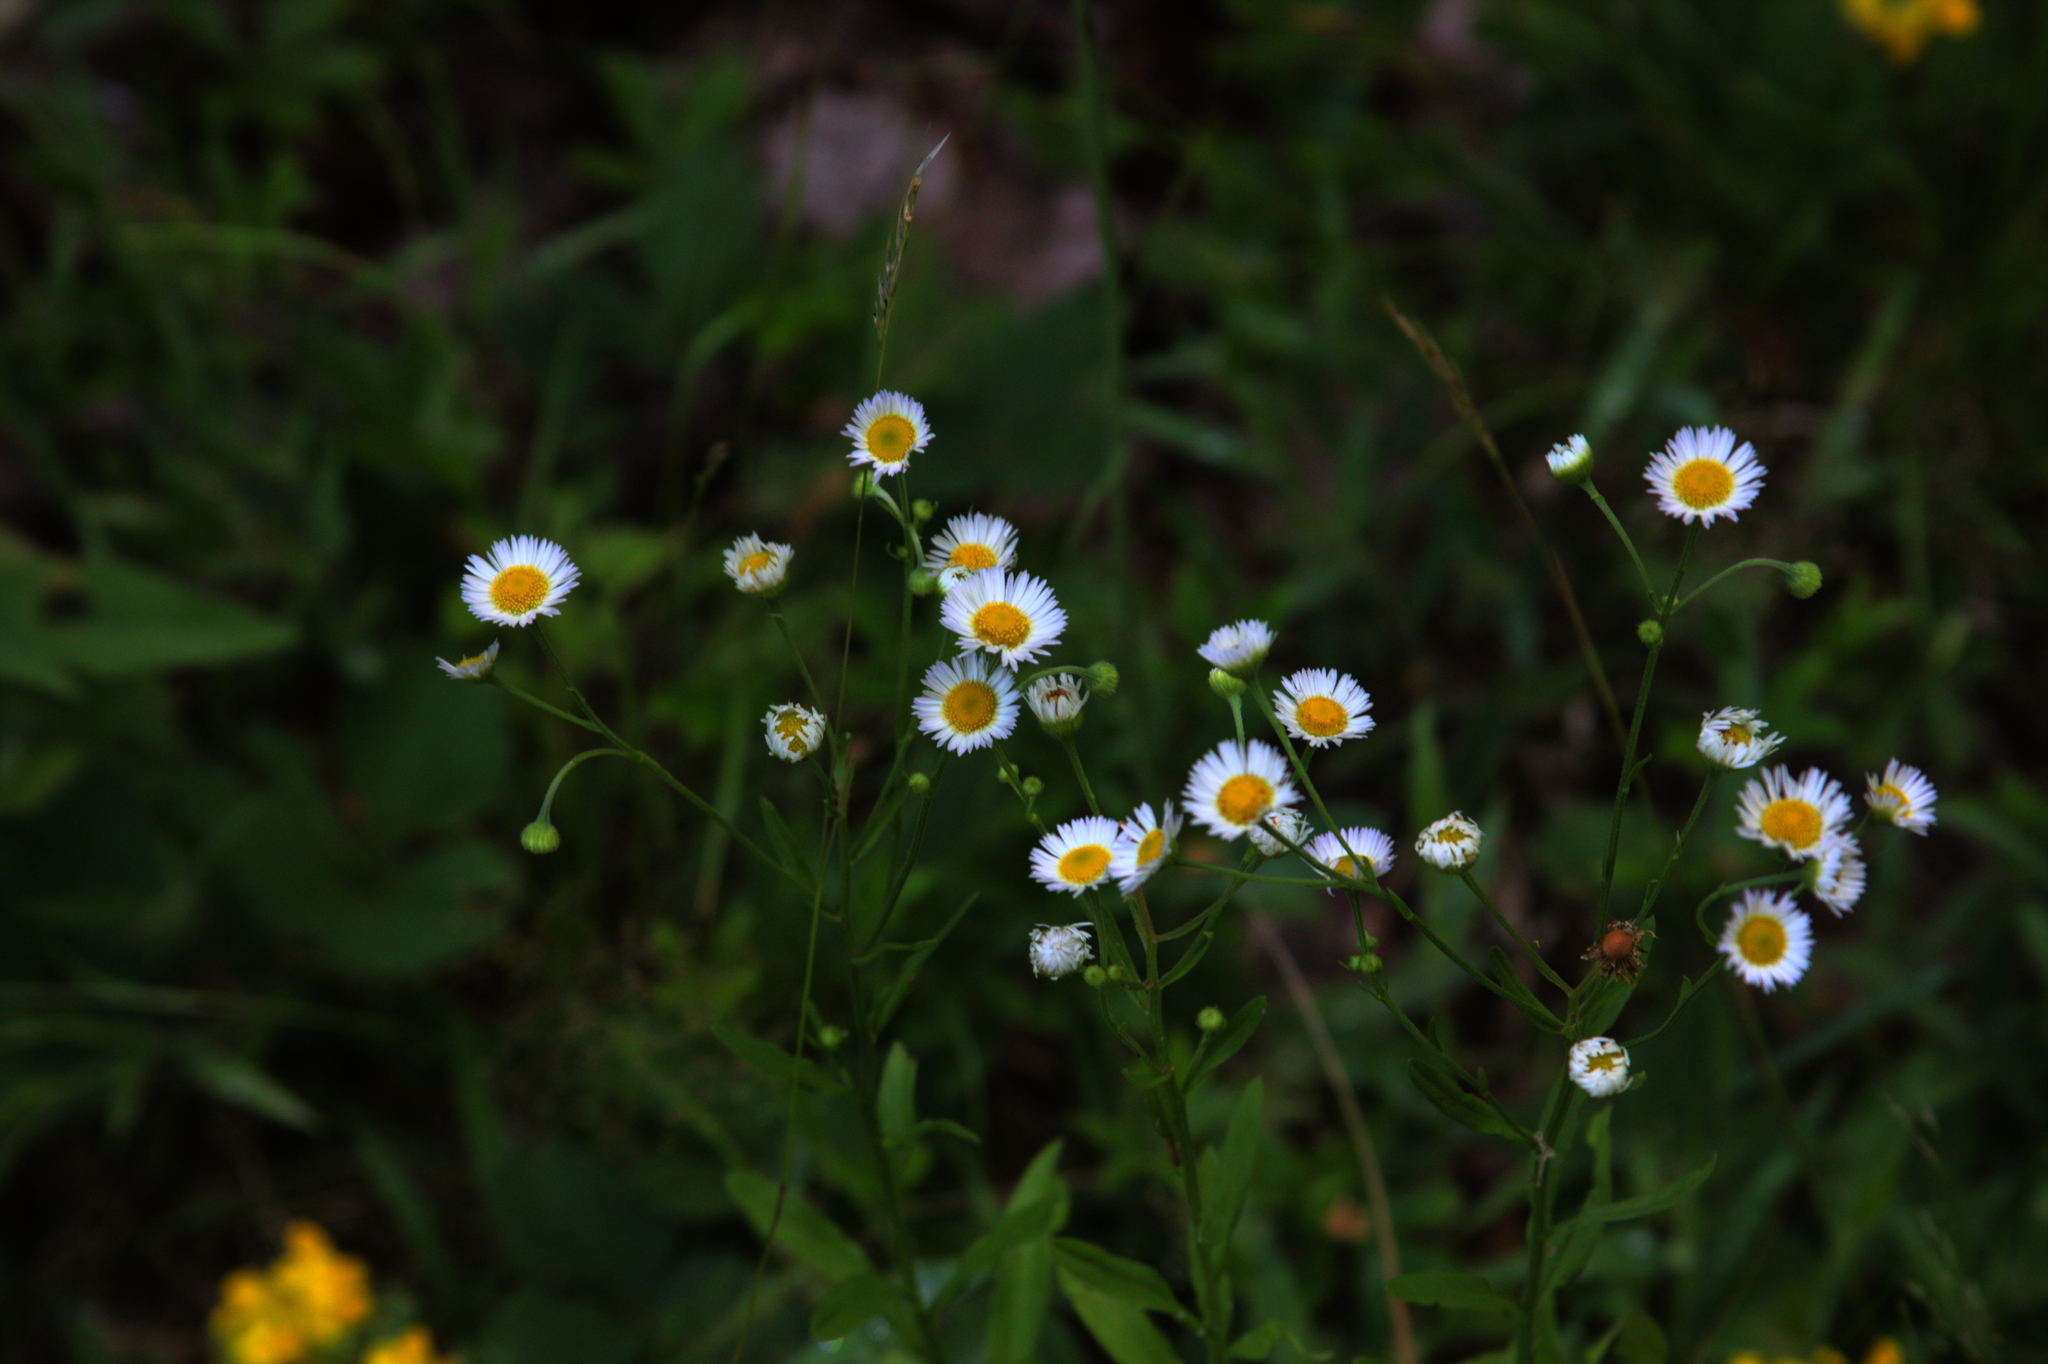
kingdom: Plantae
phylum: Tracheophyta
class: Magnoliopsida
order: Asterales
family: Asteraceae
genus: Erigeron
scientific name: Erigeron strigosus
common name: Common eastern fleabane
